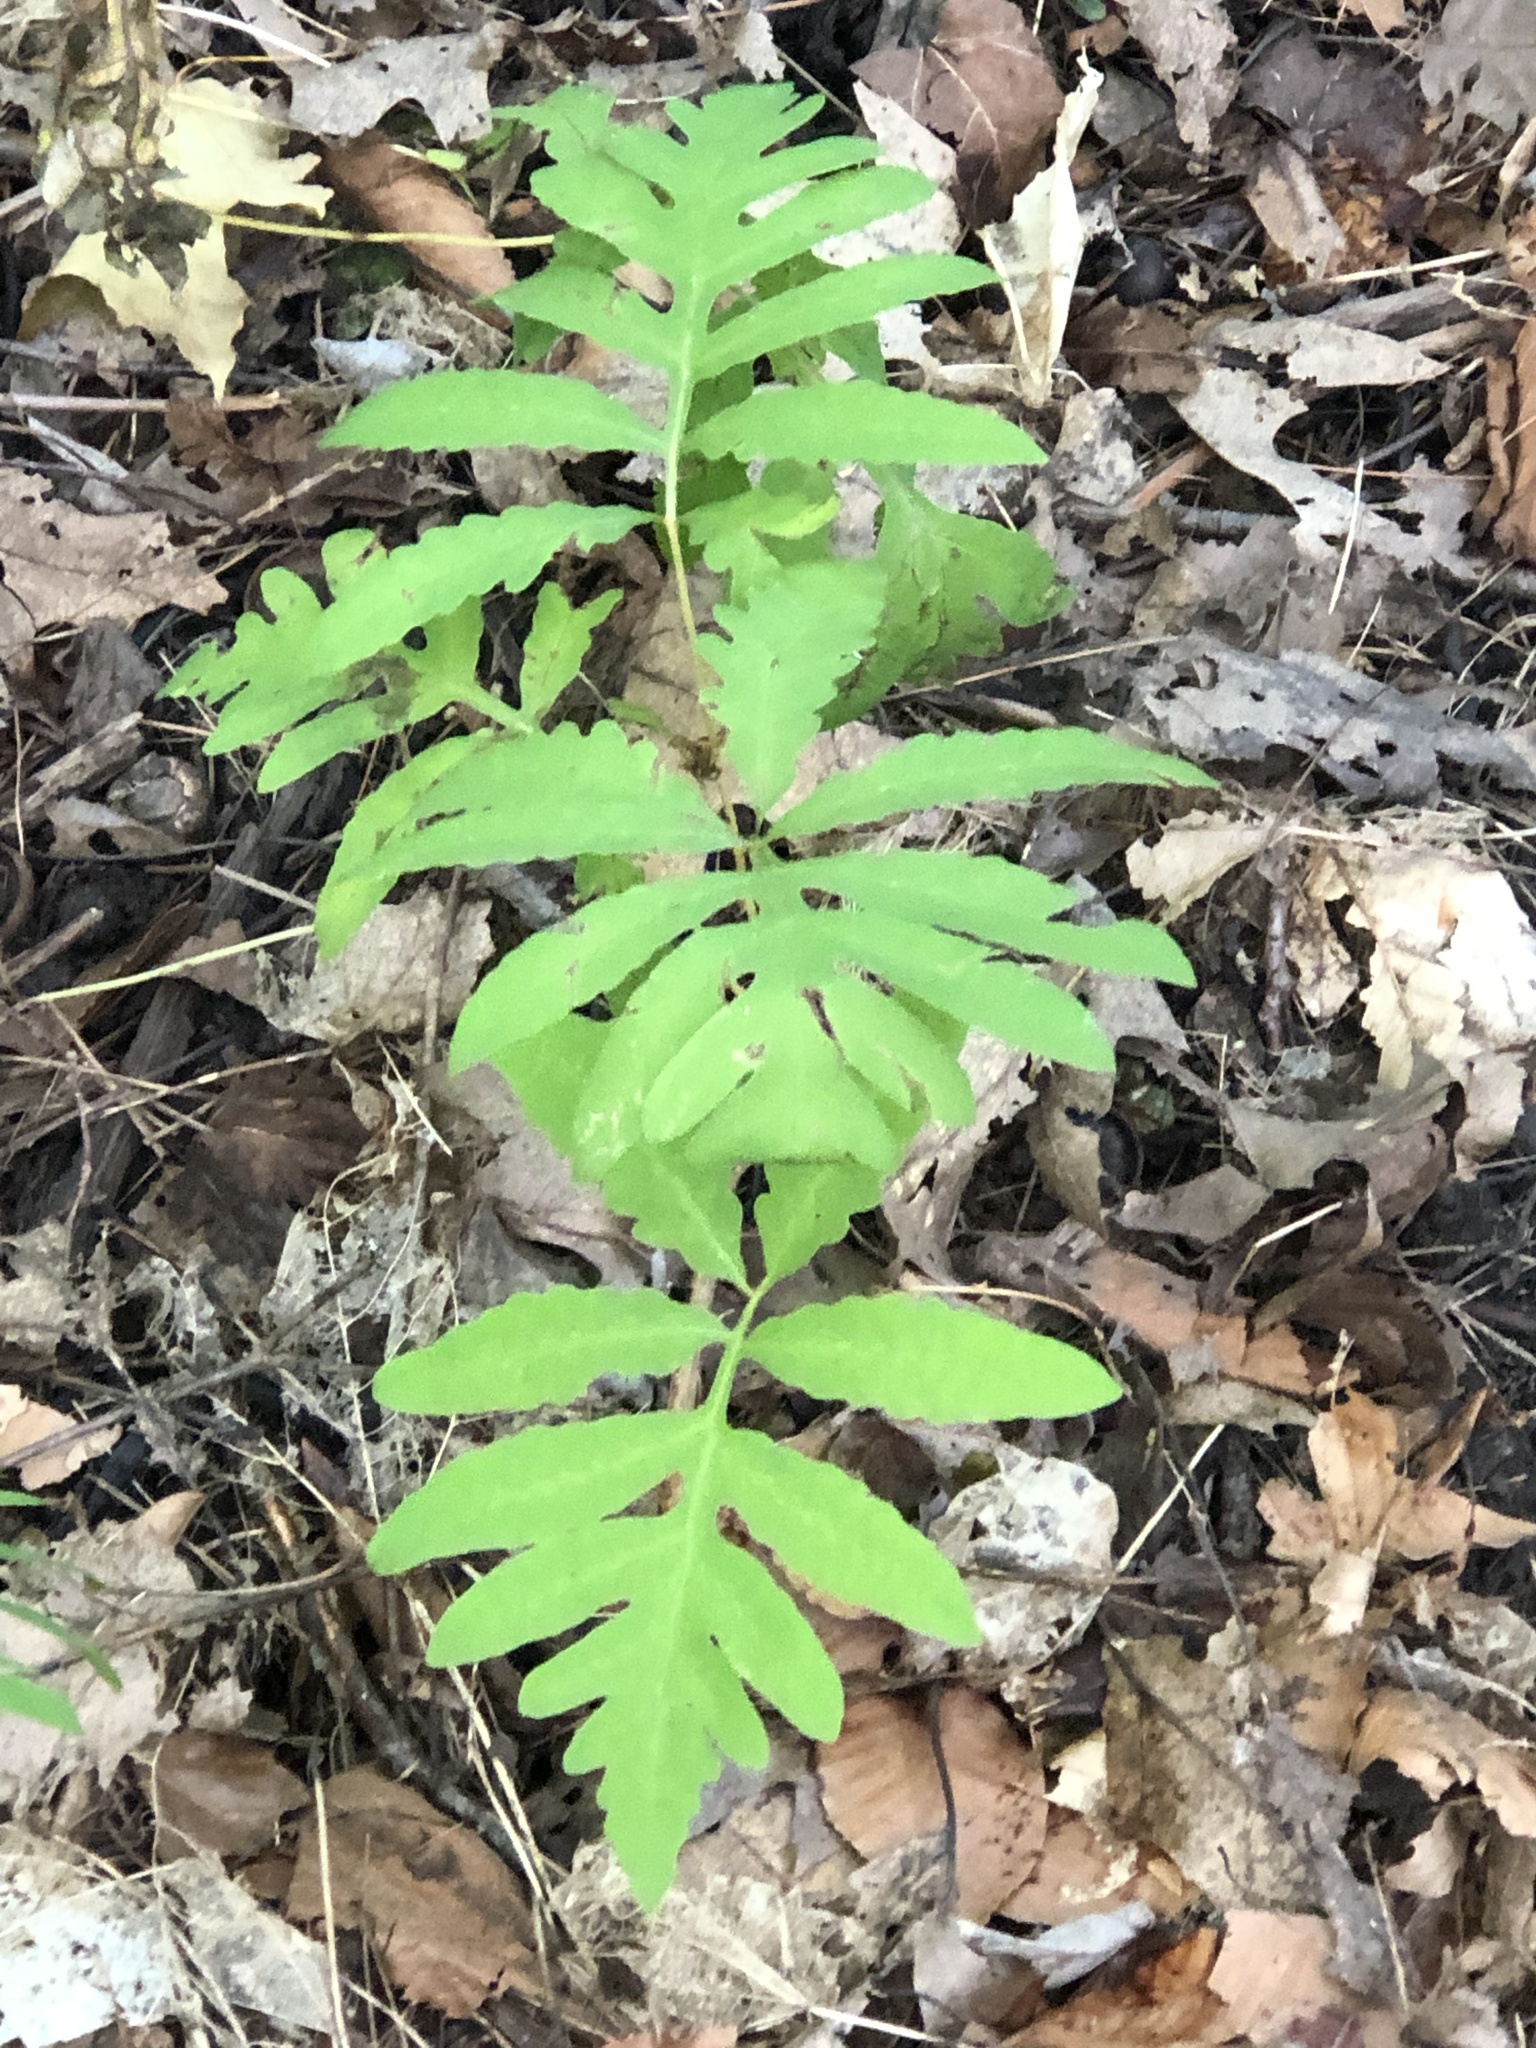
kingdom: Plantae
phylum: Tracheophyta
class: Polypodiopsida
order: Polypodiales
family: Onocleaceae
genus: Onoclea
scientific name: Onoclea sensibilis
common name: Sensitive fern
